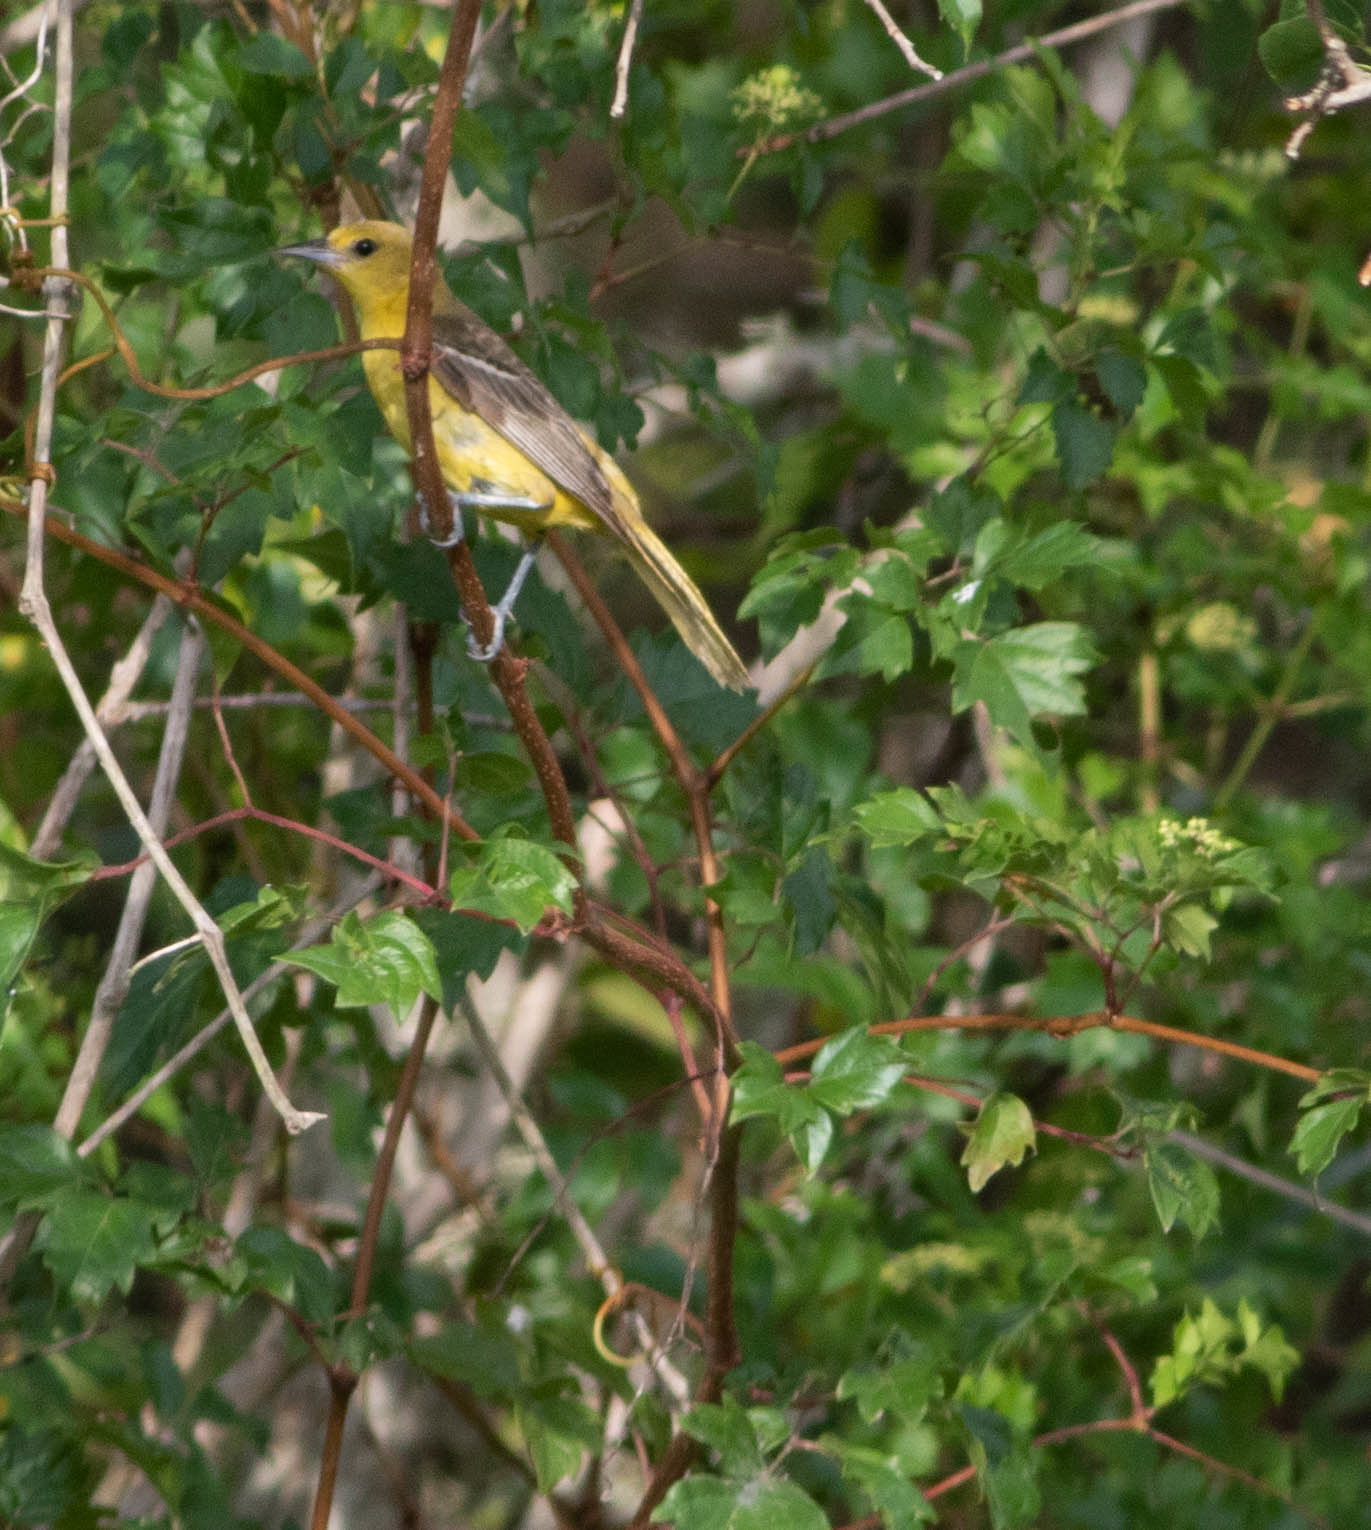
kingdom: Animalia
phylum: Chordata
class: Aves
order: Passeriformes
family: Icteridae
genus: Icterus
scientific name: Icterus spurius
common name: Orchard oriole
